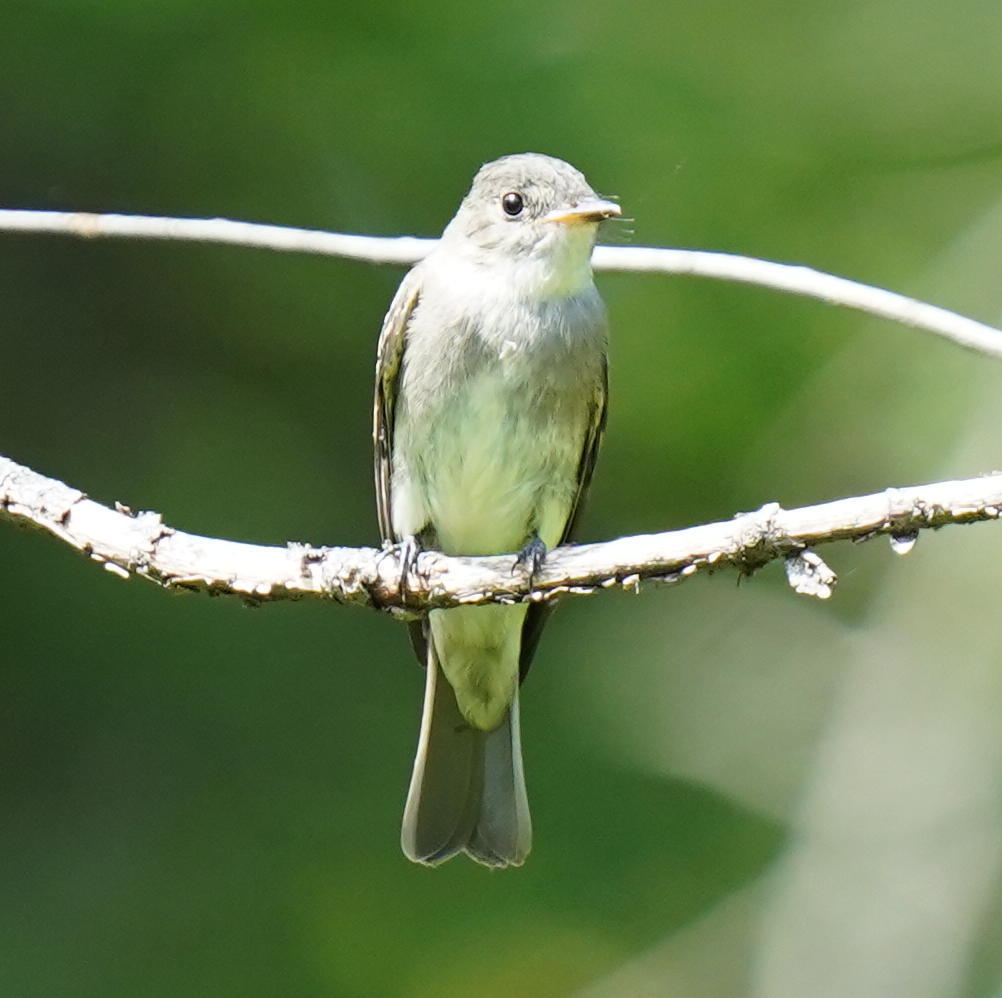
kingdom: Animalia
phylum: Chordata
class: Aves
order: Passeriformes
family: Tyrannidae
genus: Contopus
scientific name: Contopus virens
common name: Eastern wood-pewee
